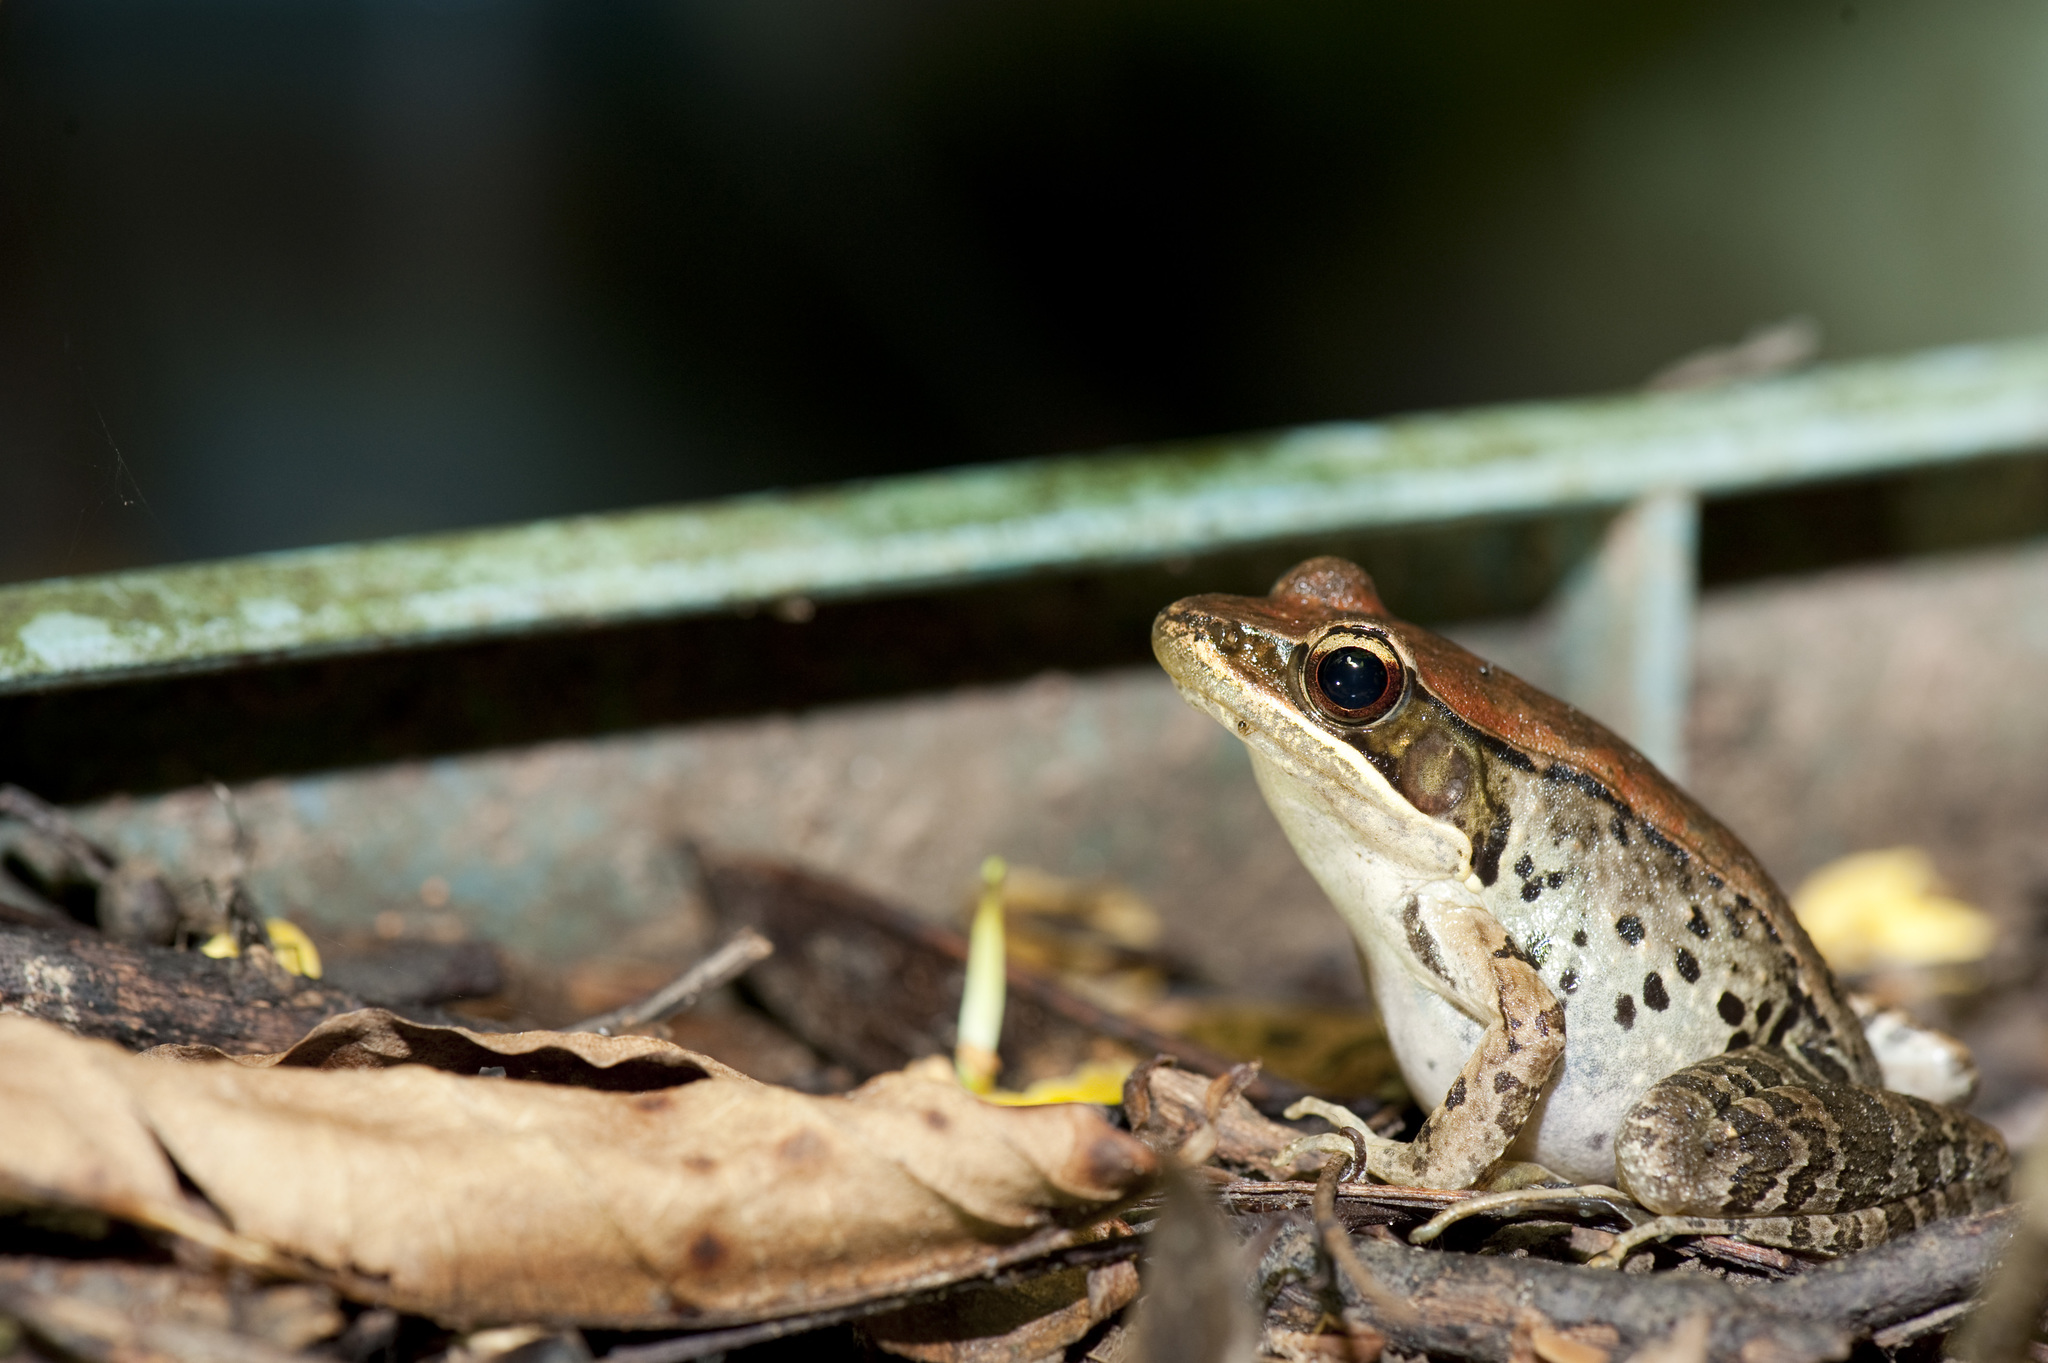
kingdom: Animalia
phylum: Chordata
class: Amphibia
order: Anura
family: Ranidae
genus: Nidirana
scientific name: Nidirana adenopleura
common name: Olive frog
